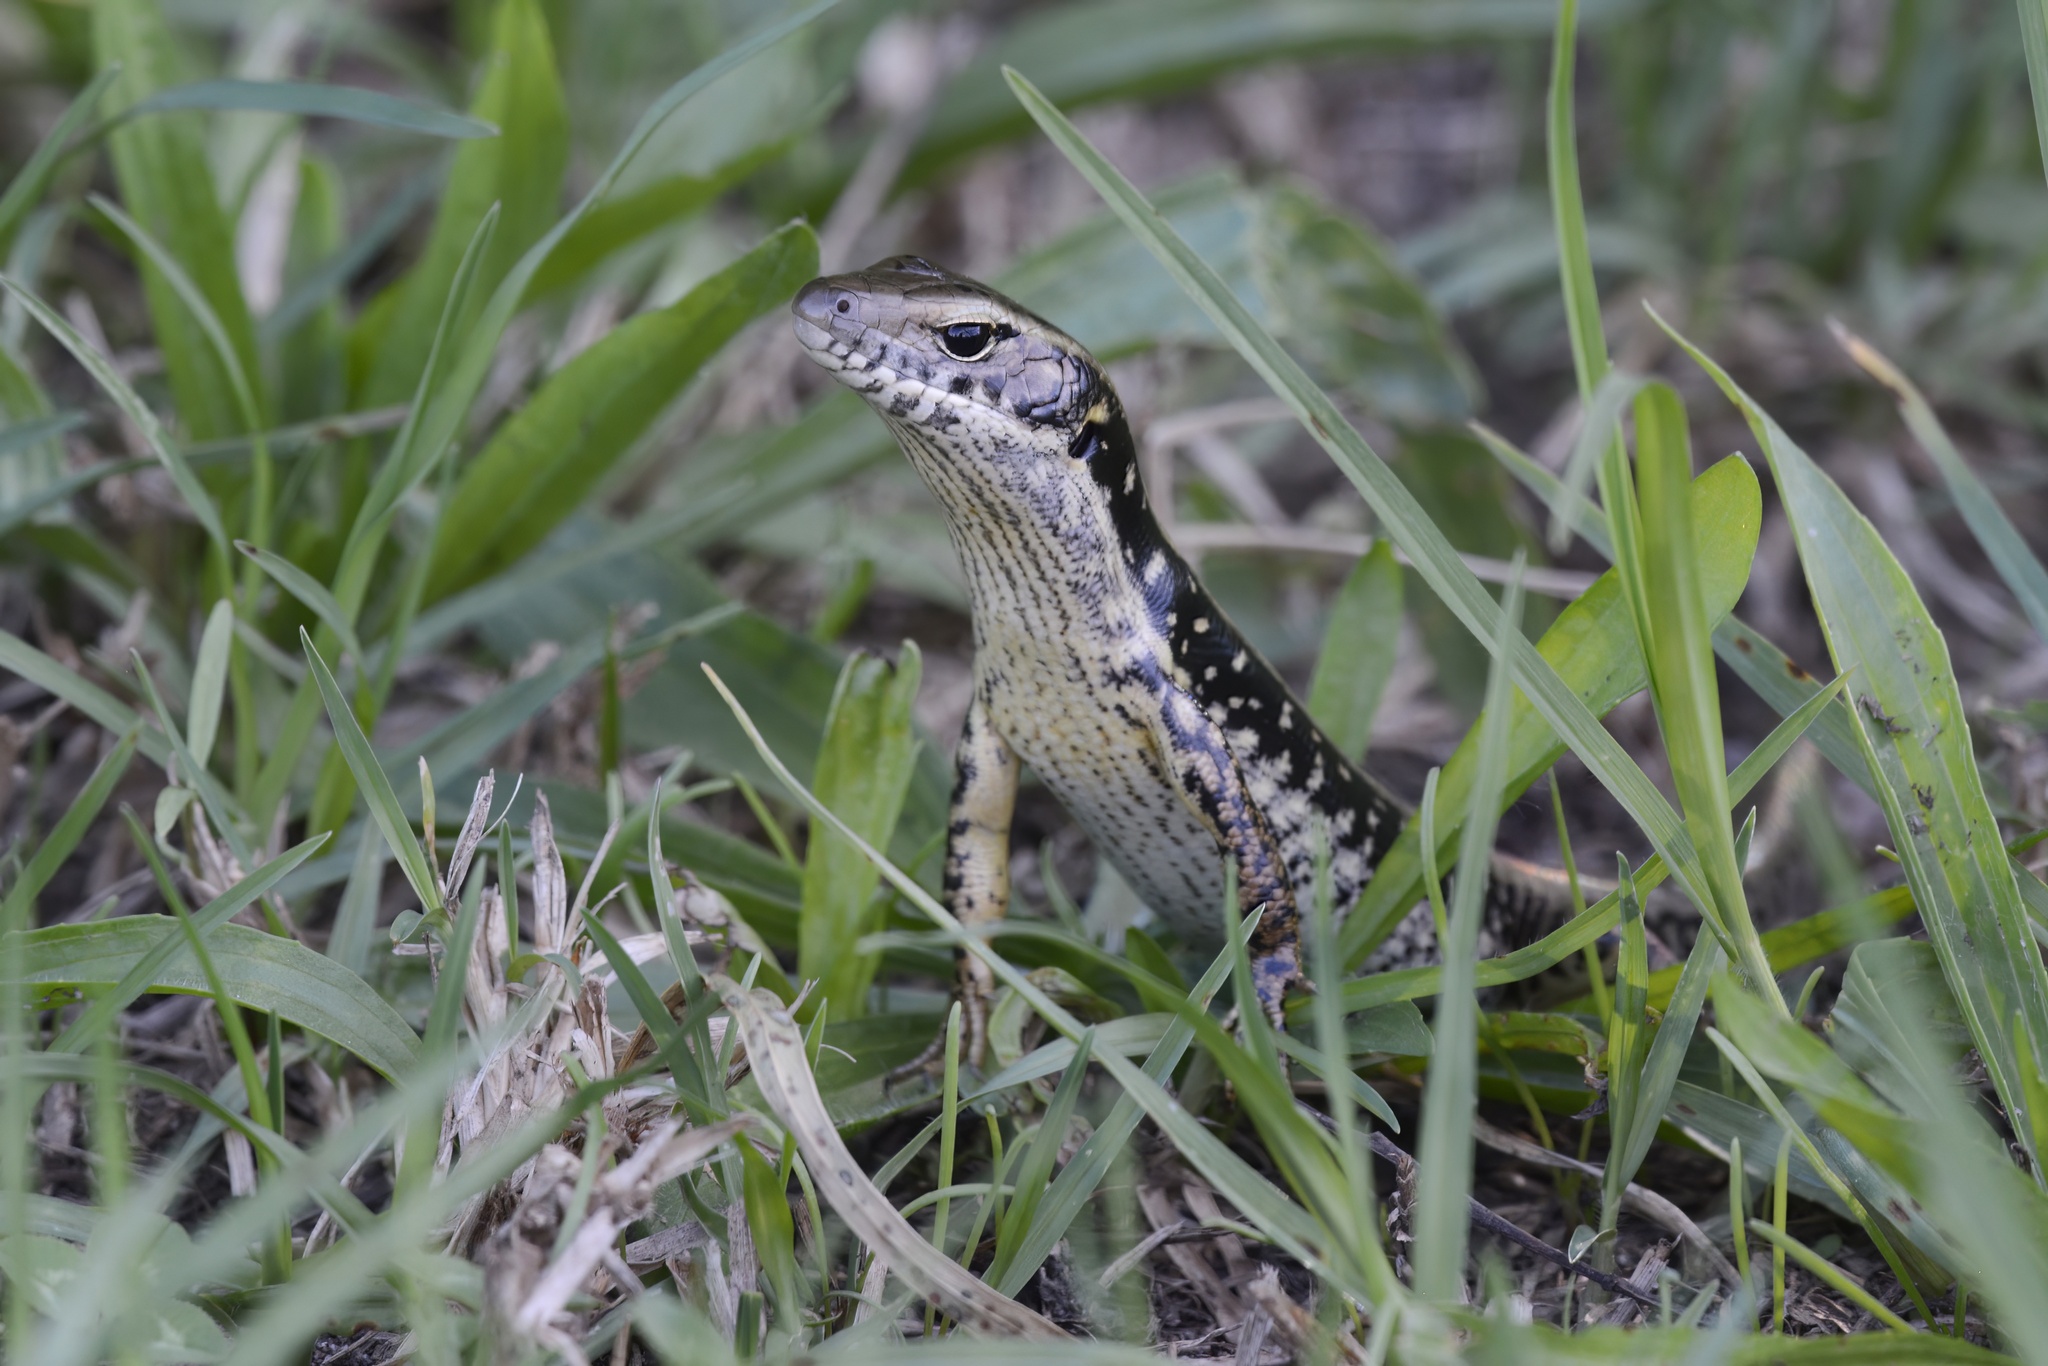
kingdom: Animalia
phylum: Chordata
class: Squamata
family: Scincidae
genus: Eulamprus
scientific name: Eulamprus quoyii
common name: Eastern water skink
